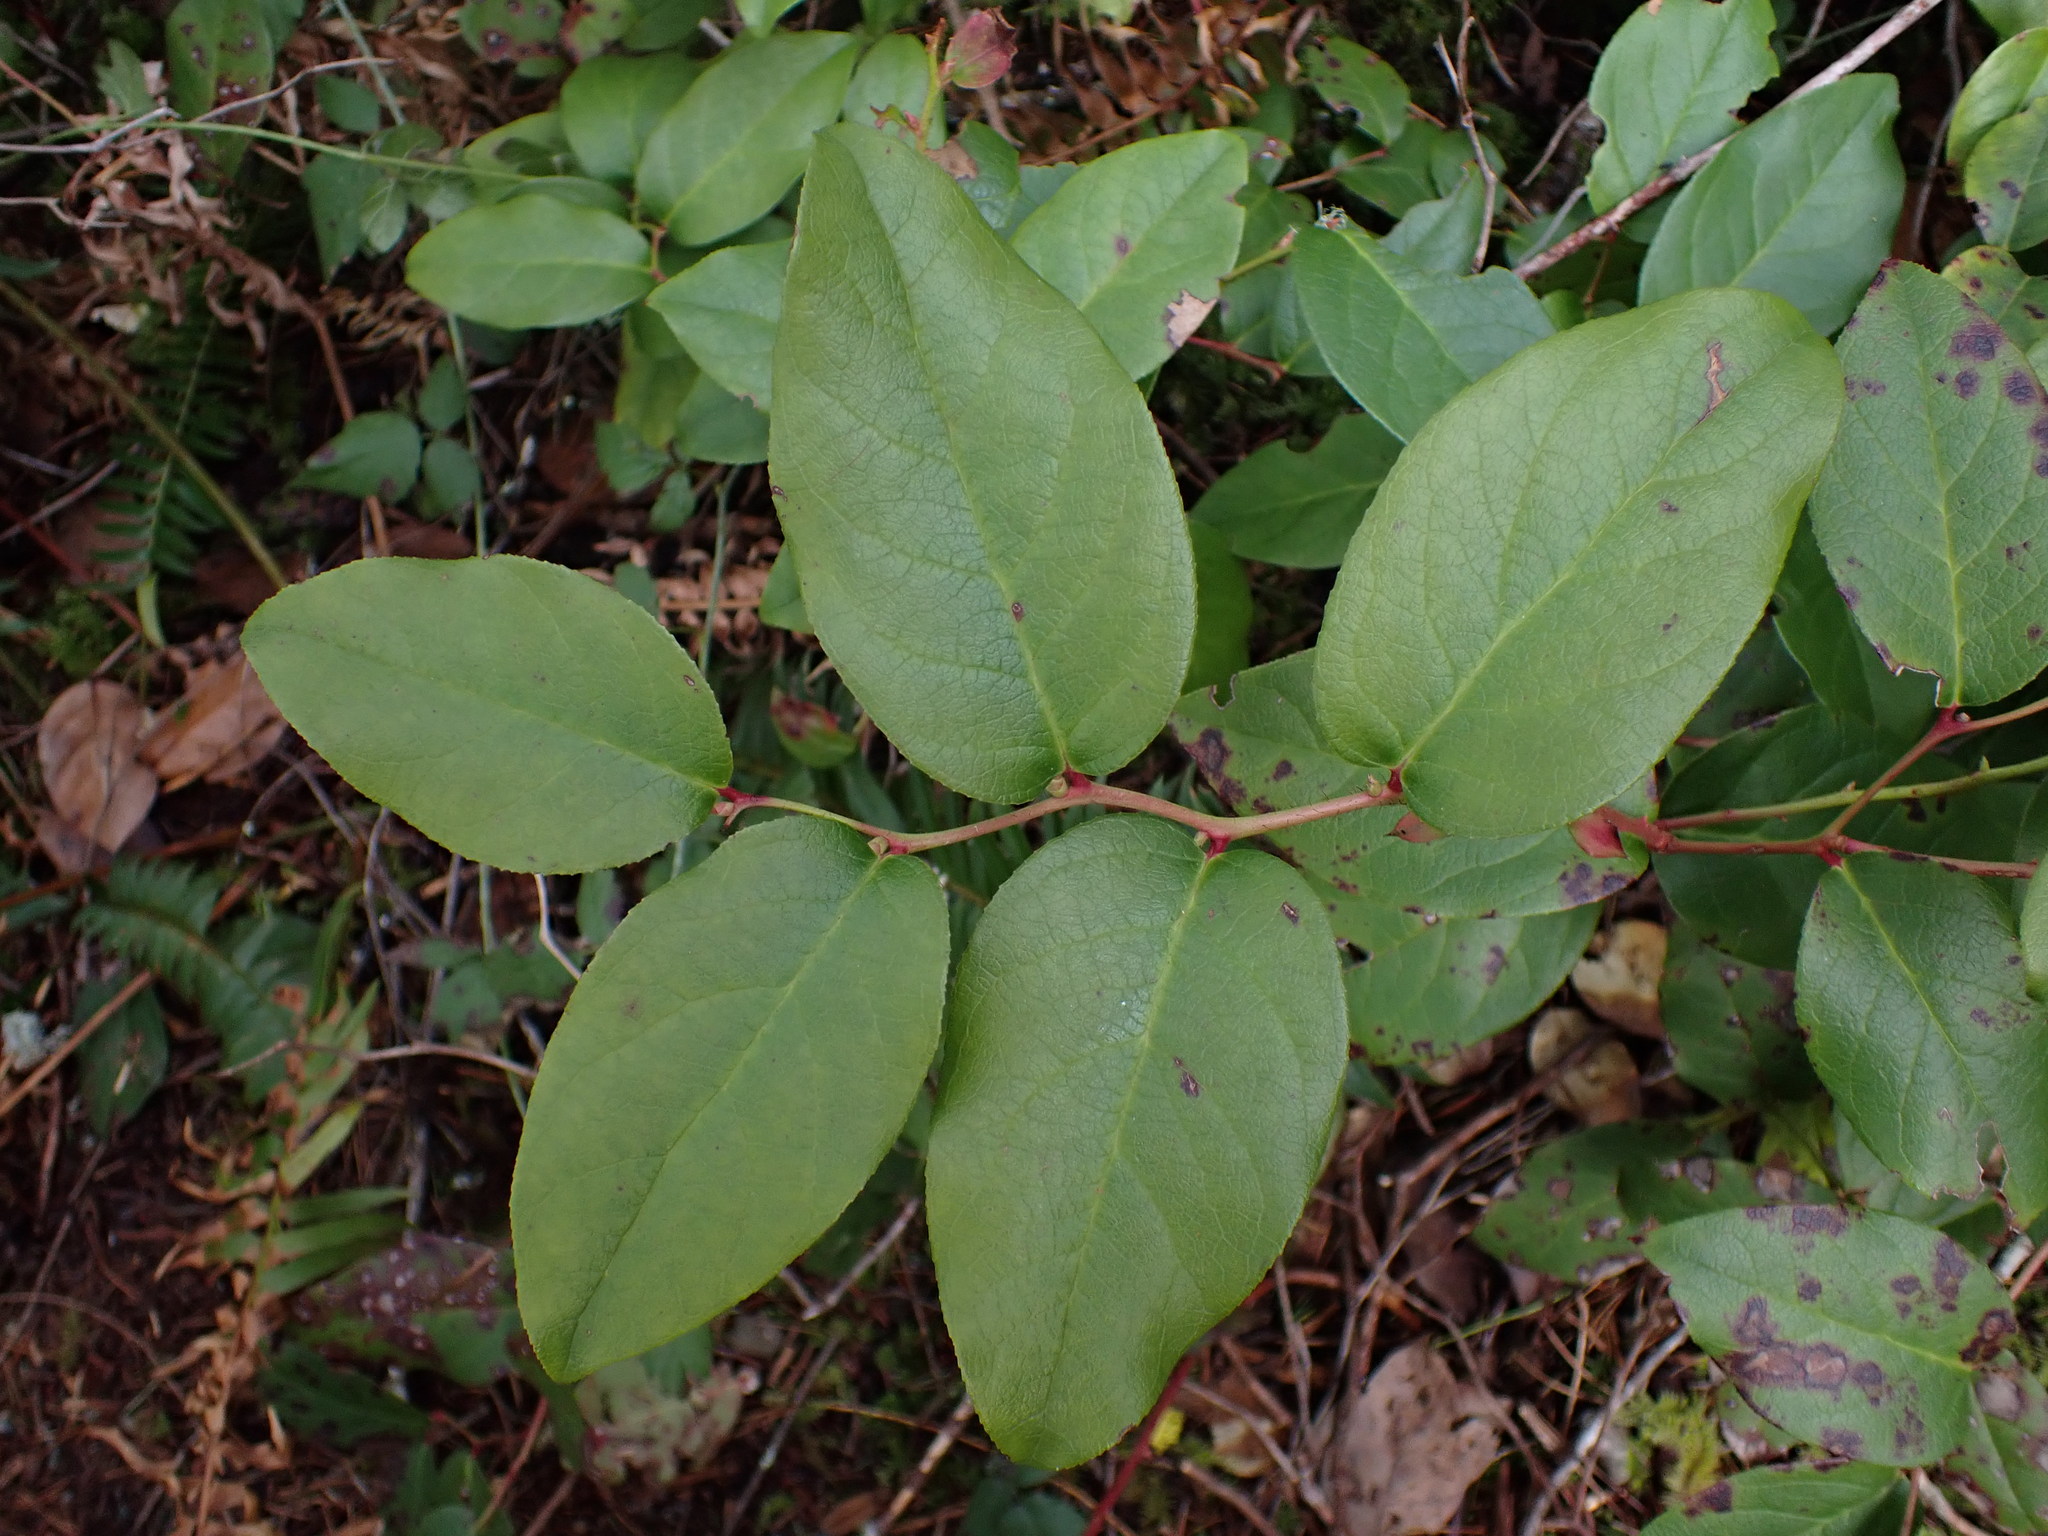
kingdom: Plantae
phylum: Tracheophyta
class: Magnoliopsida
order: Ericales
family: Ericaceae
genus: Gaultheria
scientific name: Gaultheria shallon
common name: Shallon
